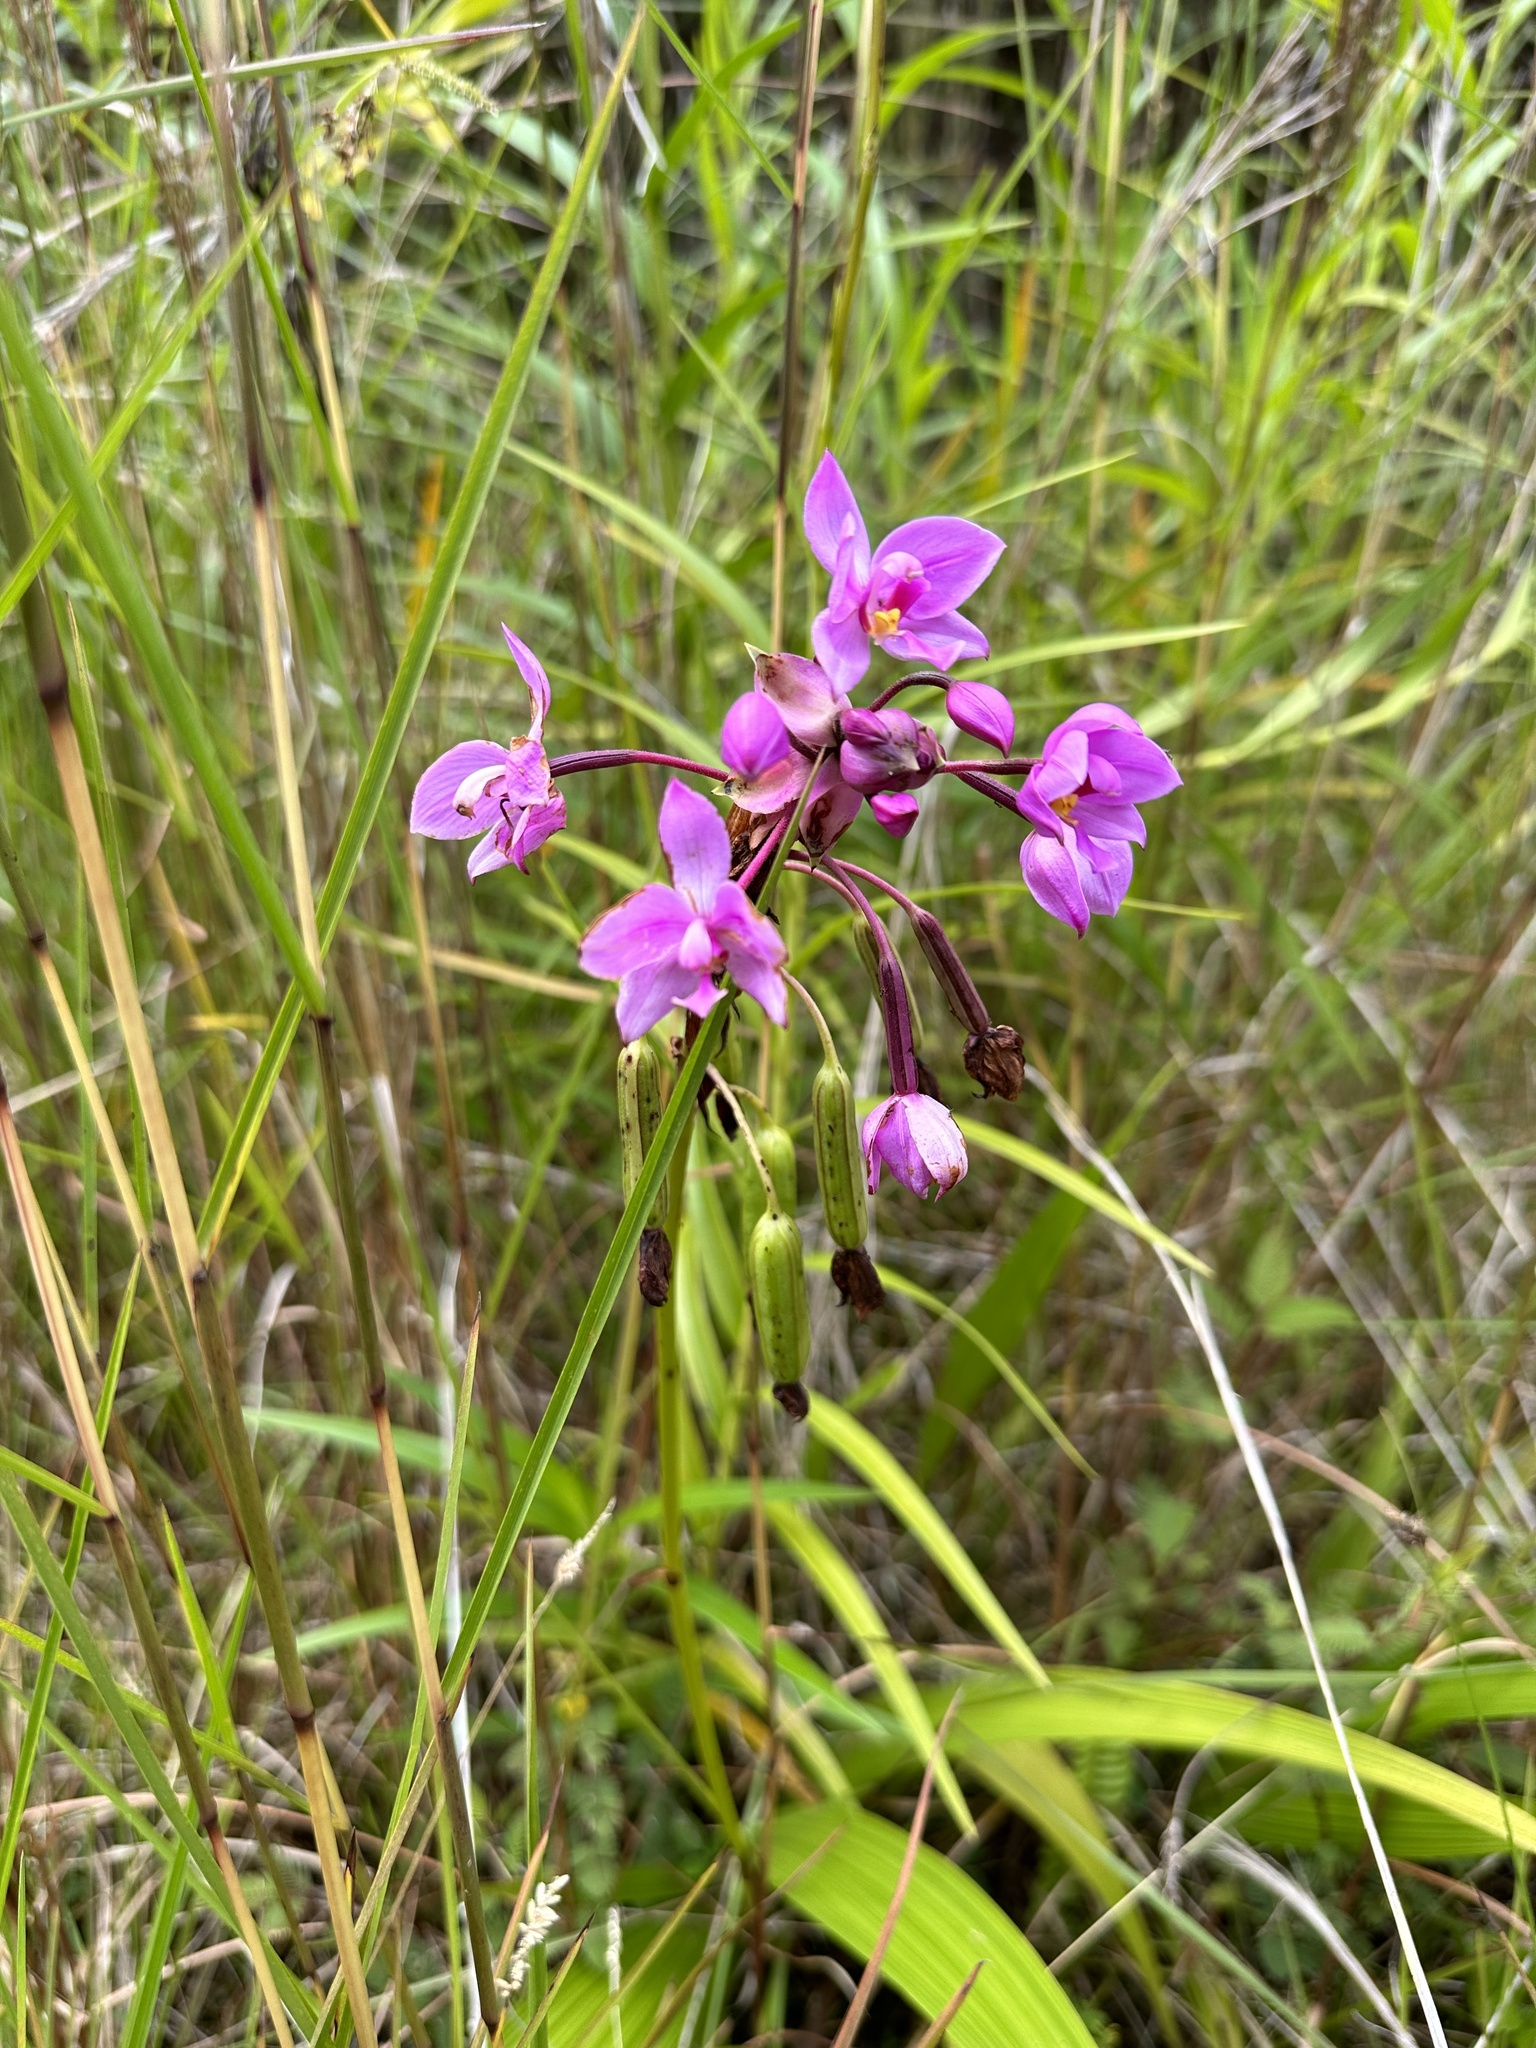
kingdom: Plantae
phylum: Tracheophyta
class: Liliopsida
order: Asparagales
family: Orchidaceae
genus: Spathoglottis
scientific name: Spathoglottis plicata
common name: Philippine ground orchid
